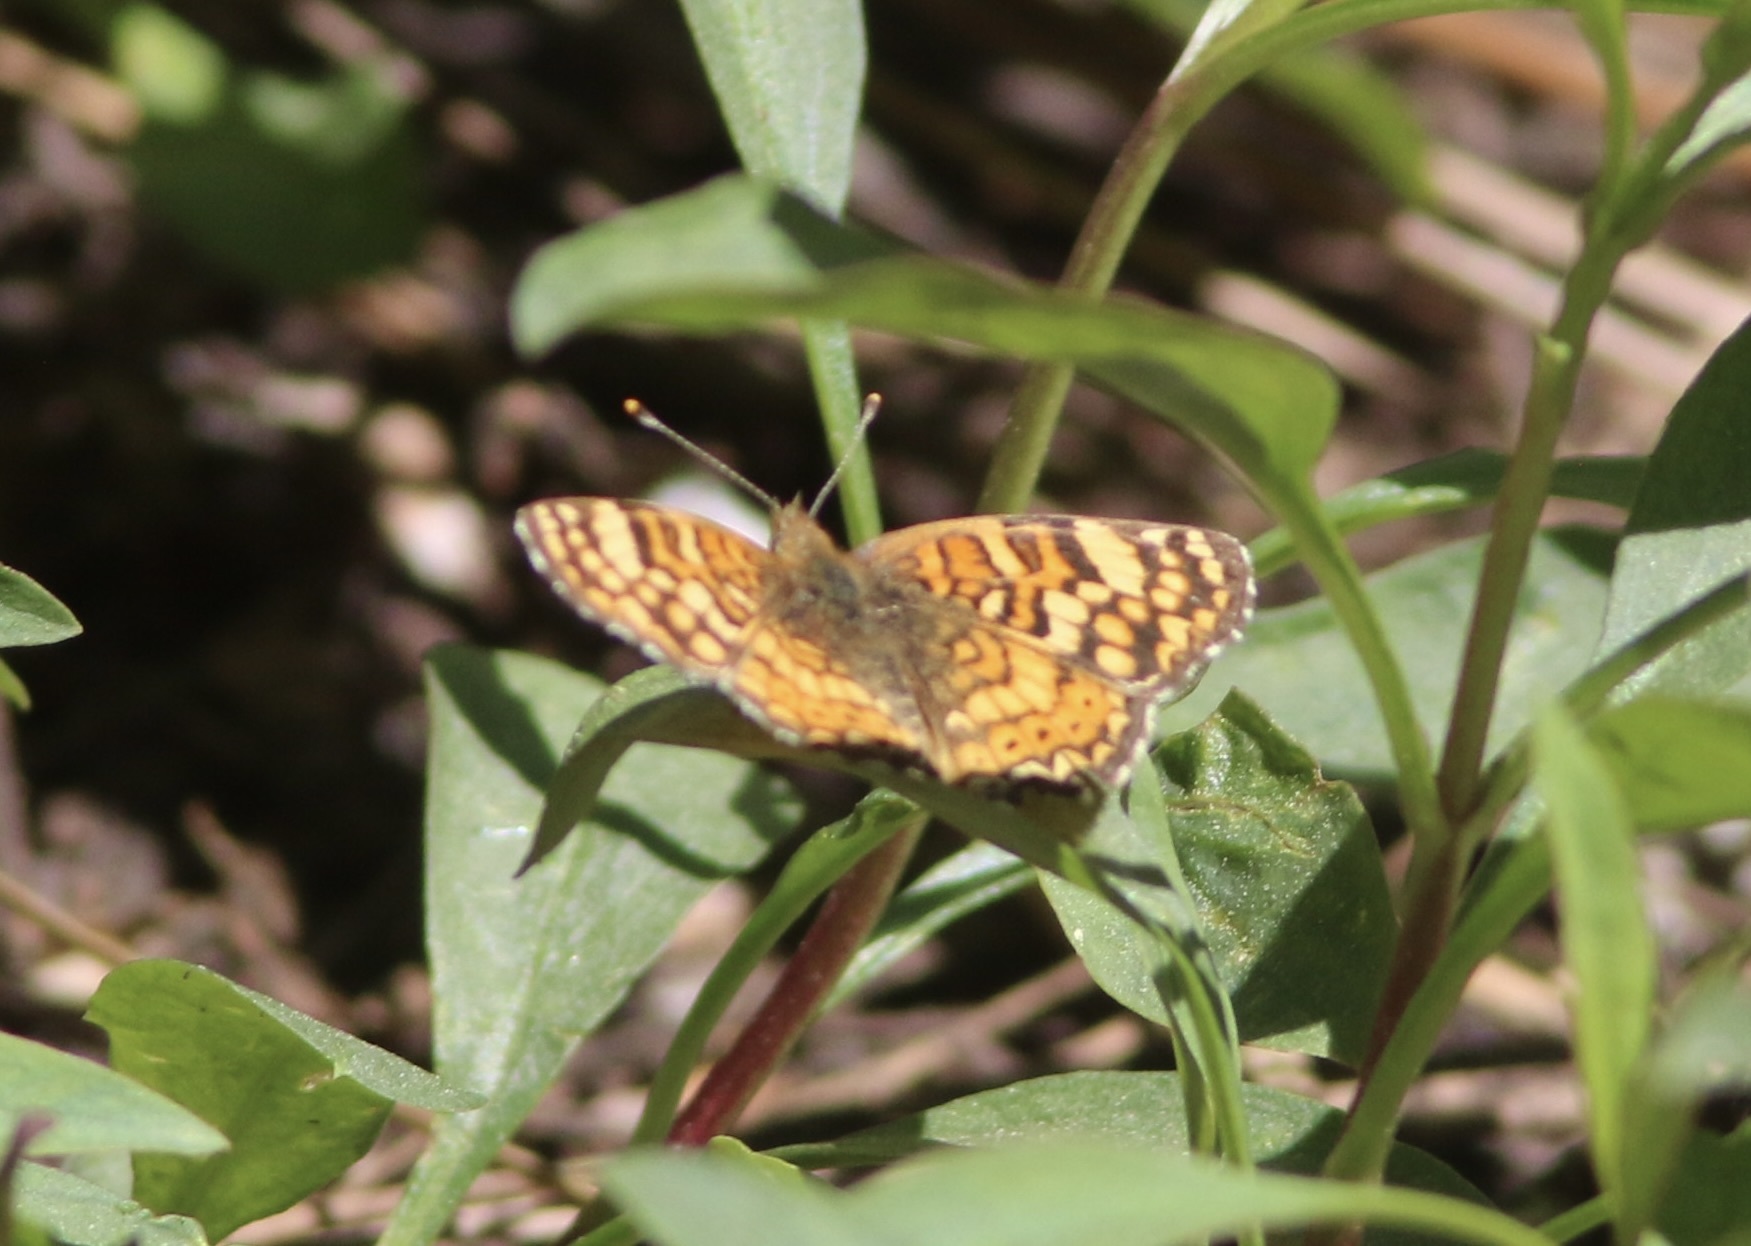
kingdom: Animalia
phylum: Arthropoda
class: Insecta
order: Lepidoptera
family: Nymphalidae
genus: Eresia
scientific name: Eresia aveyrona
